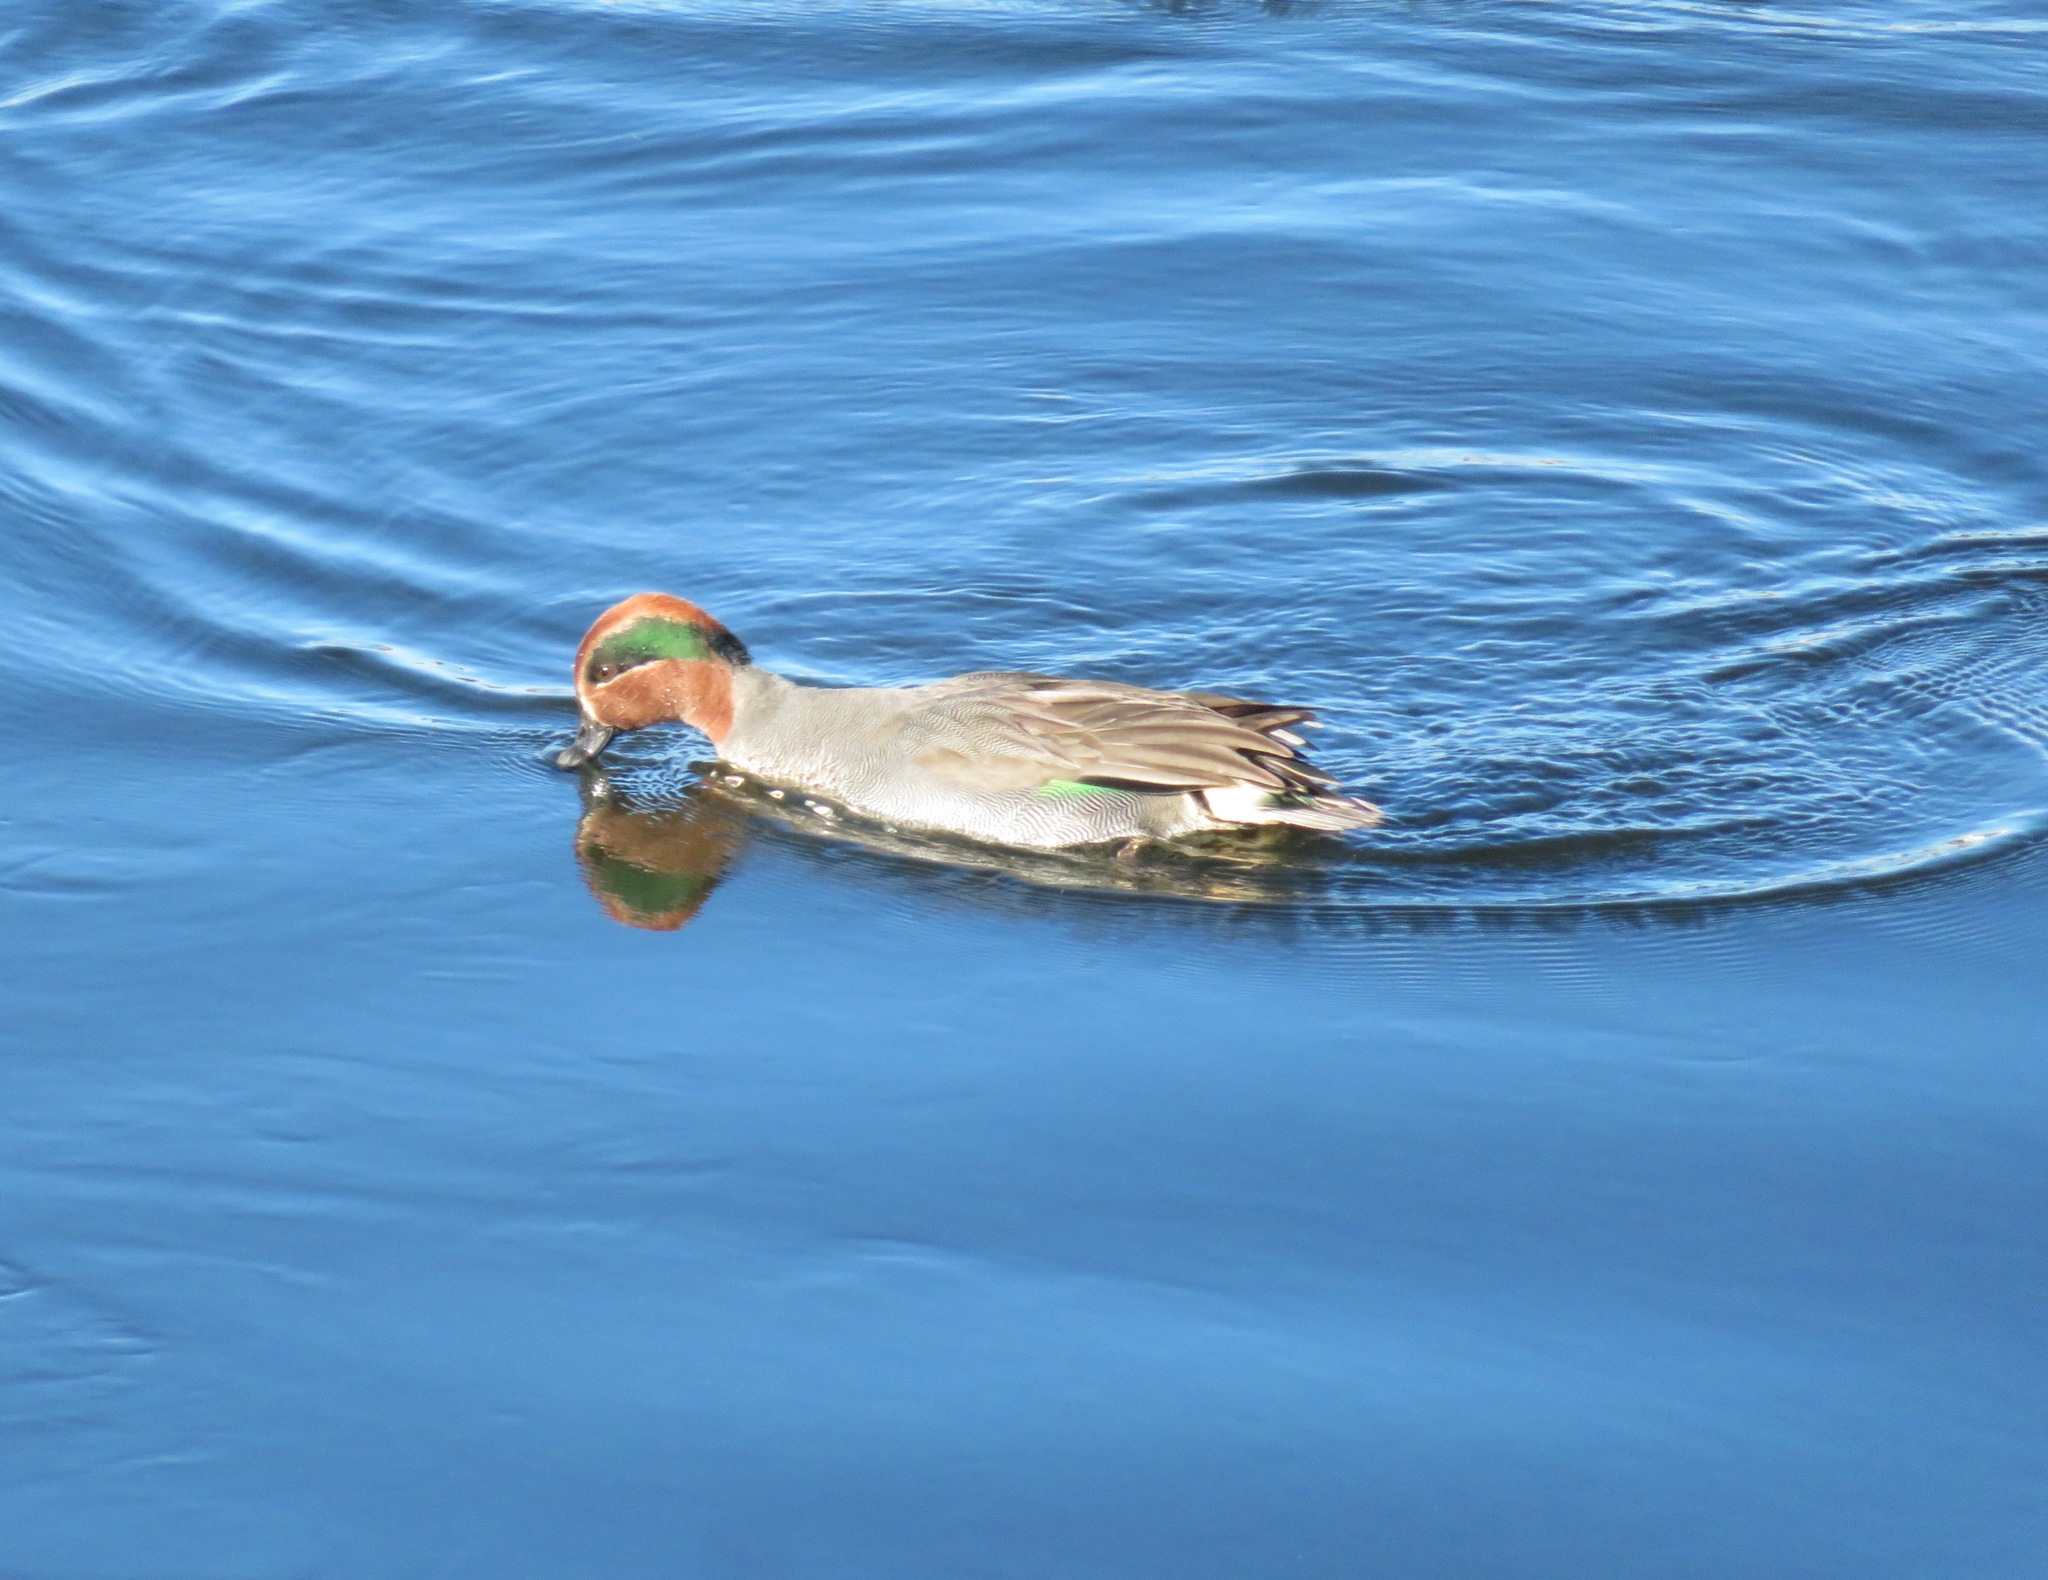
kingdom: Animalia
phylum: Chordata
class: Aves
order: Anseriformes
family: Anatidae
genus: Anas
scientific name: Anas crecca
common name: Eurasian teal
